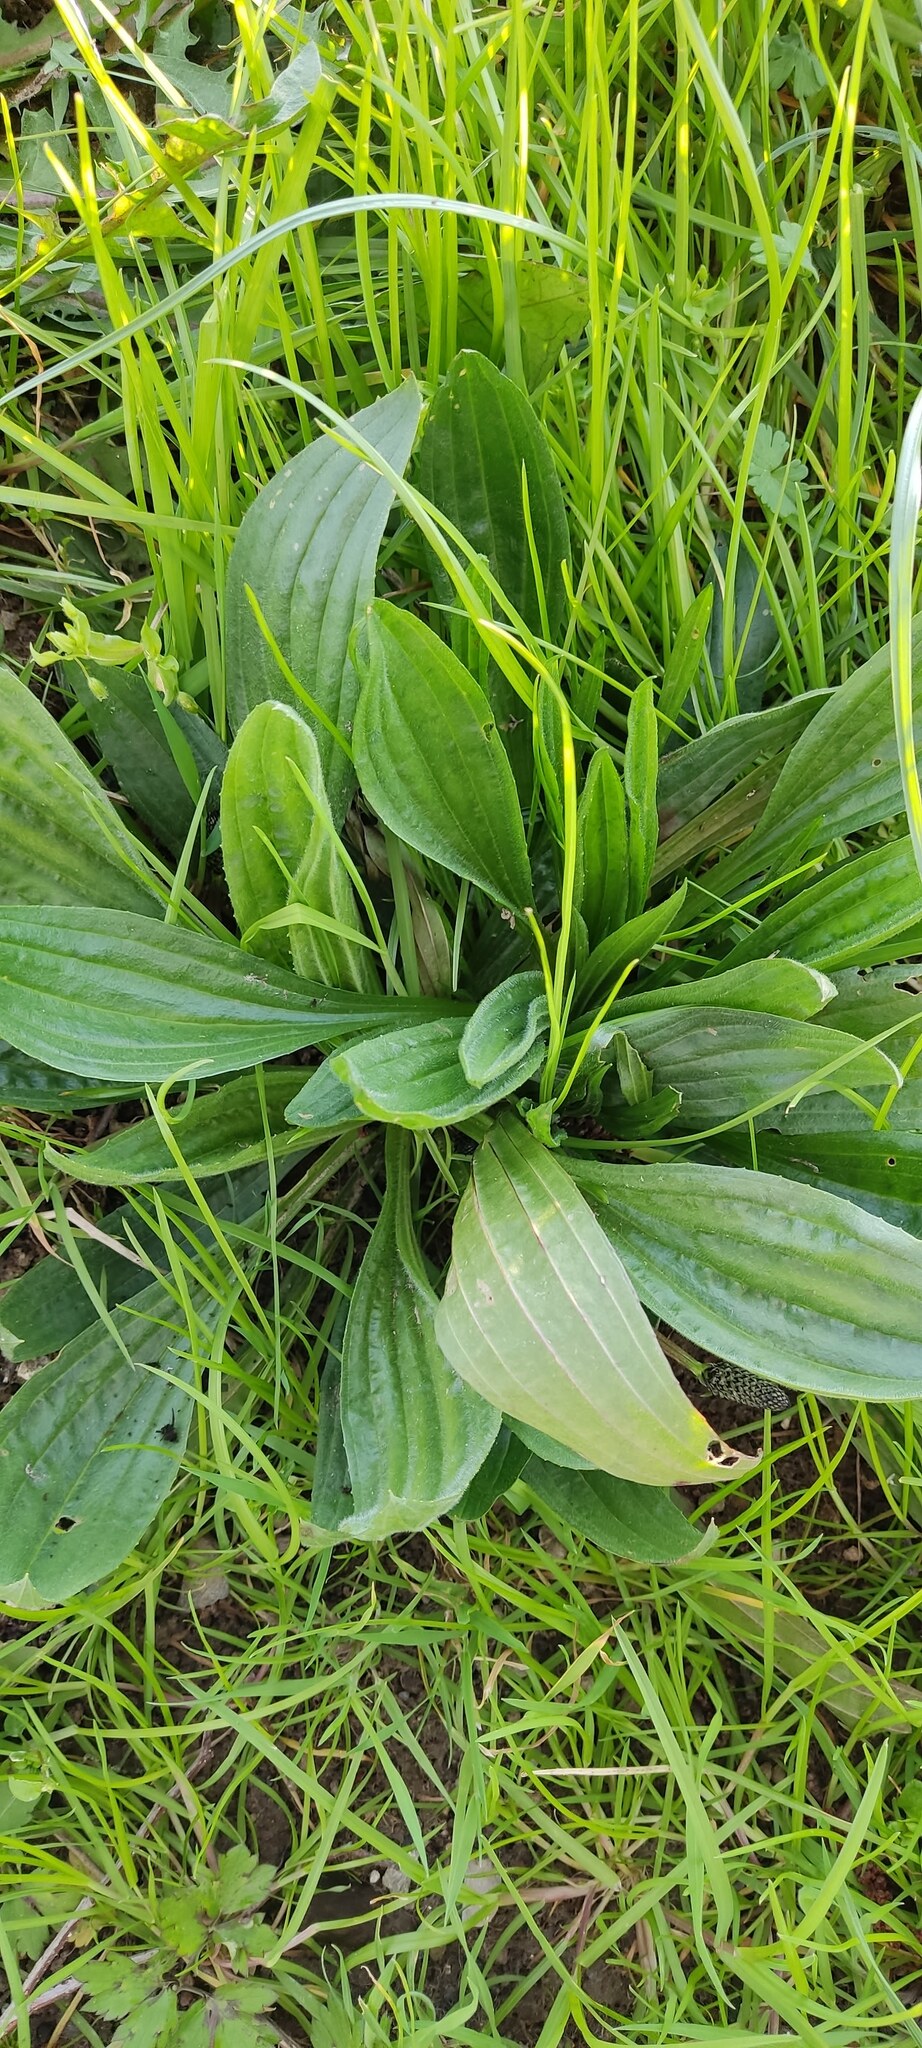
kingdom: Plantae
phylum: Tracheophyta
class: Magnoliopsida
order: Lamiales
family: Plantaginaceae
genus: Plantago
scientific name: Plantago lanceolata
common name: Ribwort plantain
